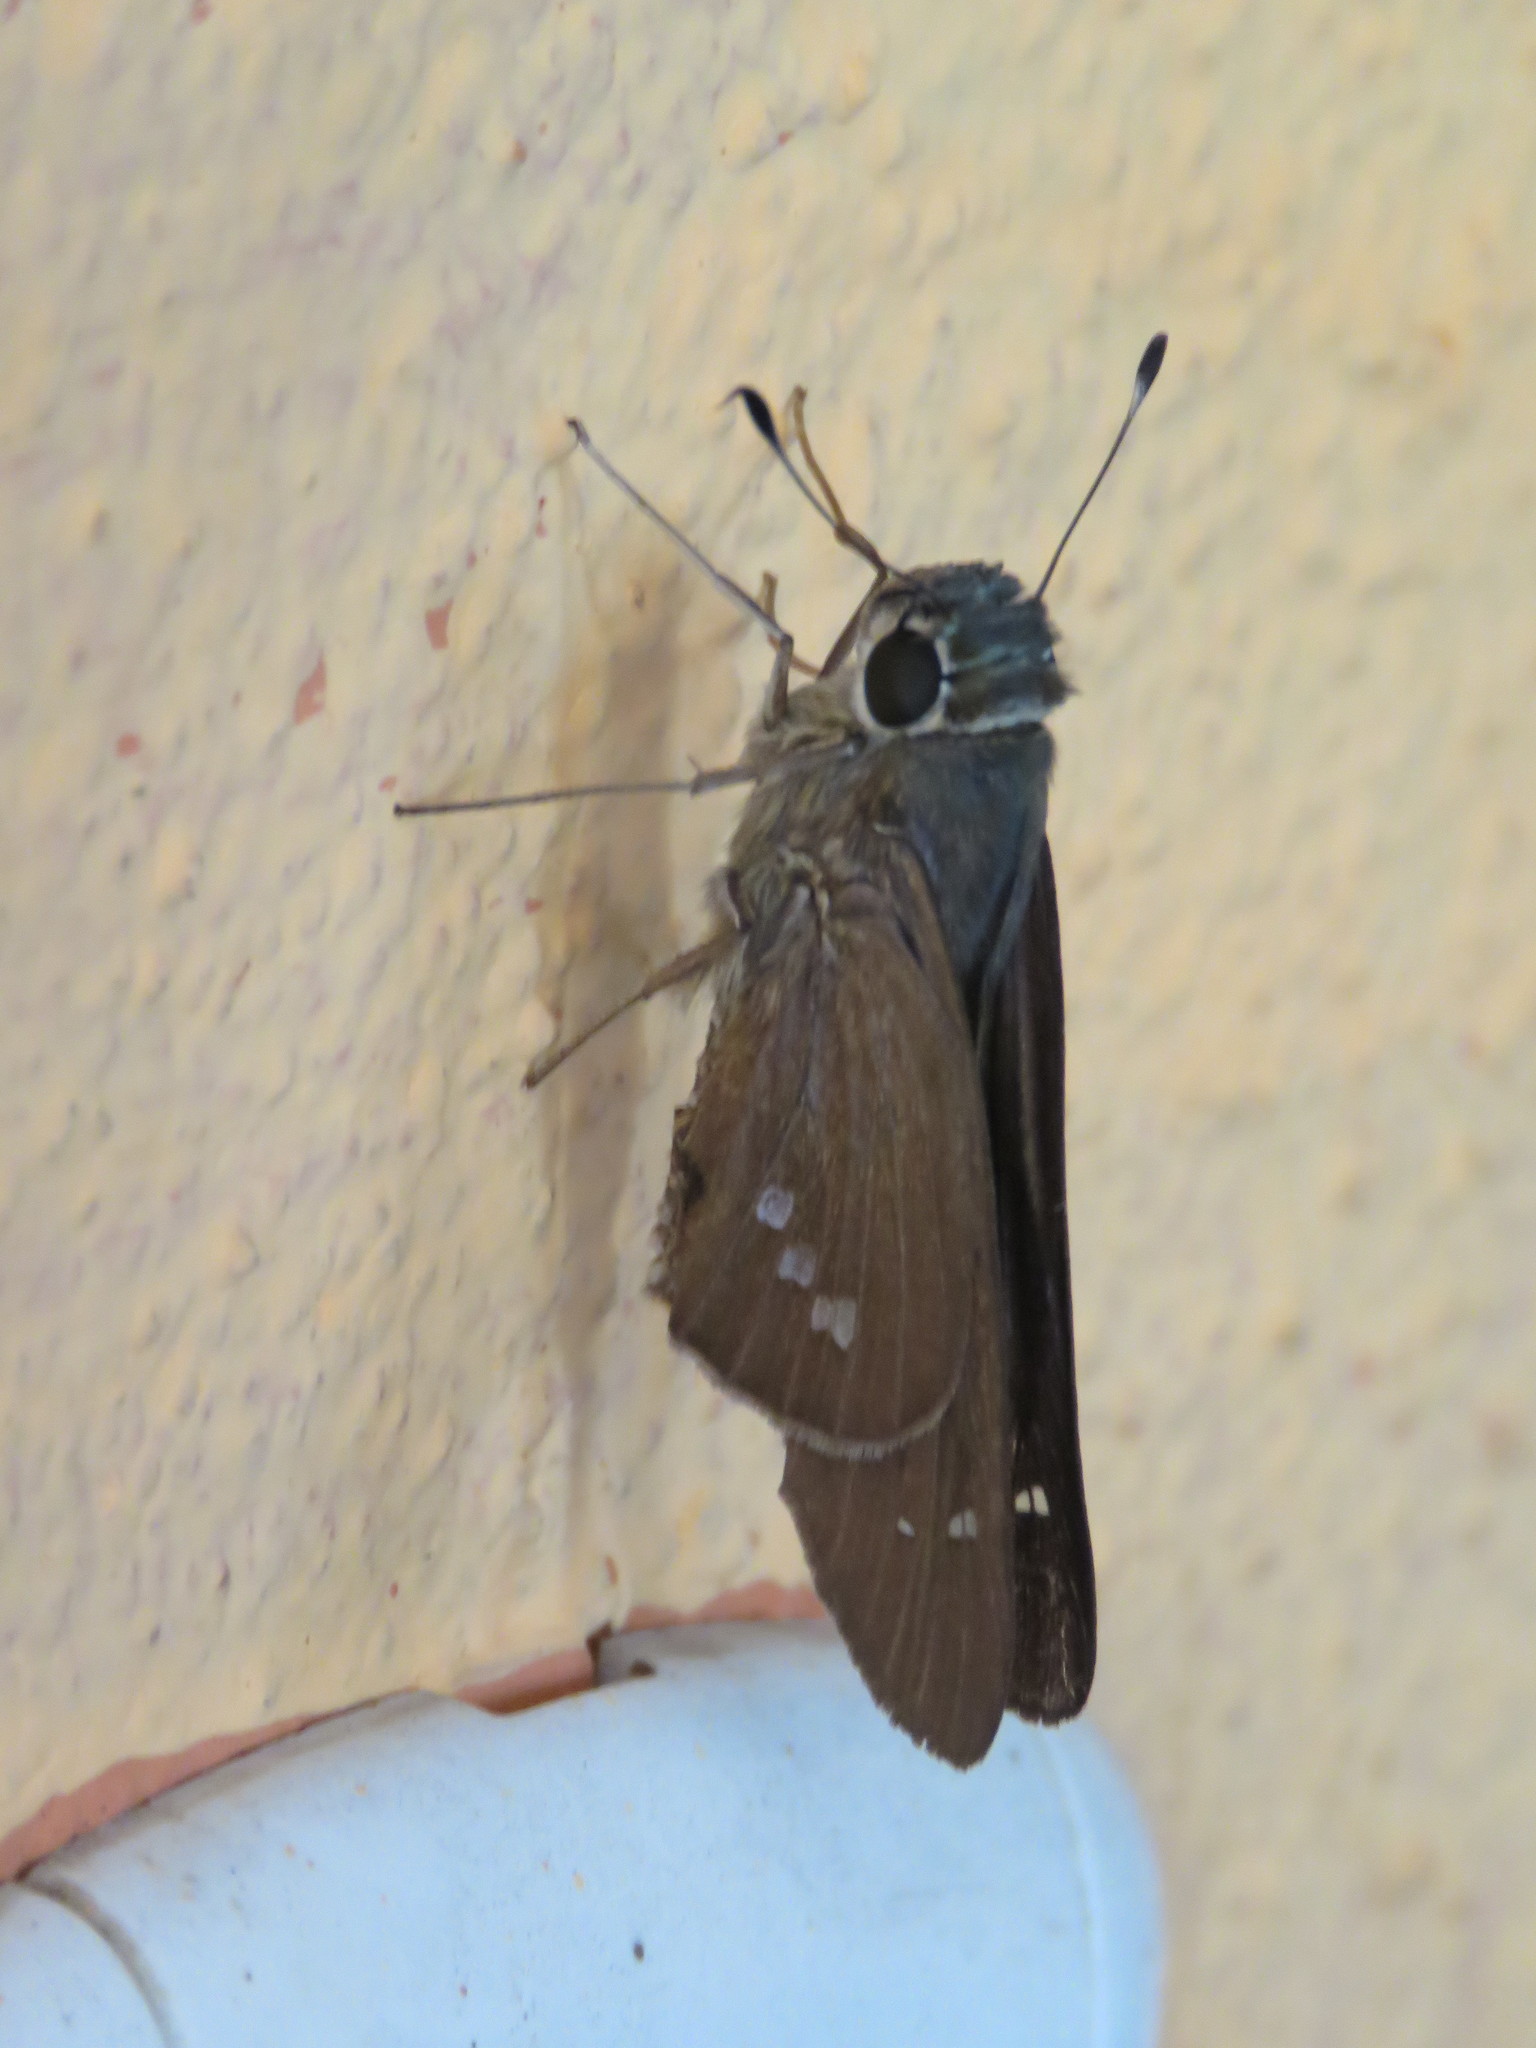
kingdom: Animalia
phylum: Arthropoda
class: Insecta
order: Lepidoptera
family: Hesperiidae
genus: Calpodes
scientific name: Calpodes ethlius
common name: Brazilian skipper
